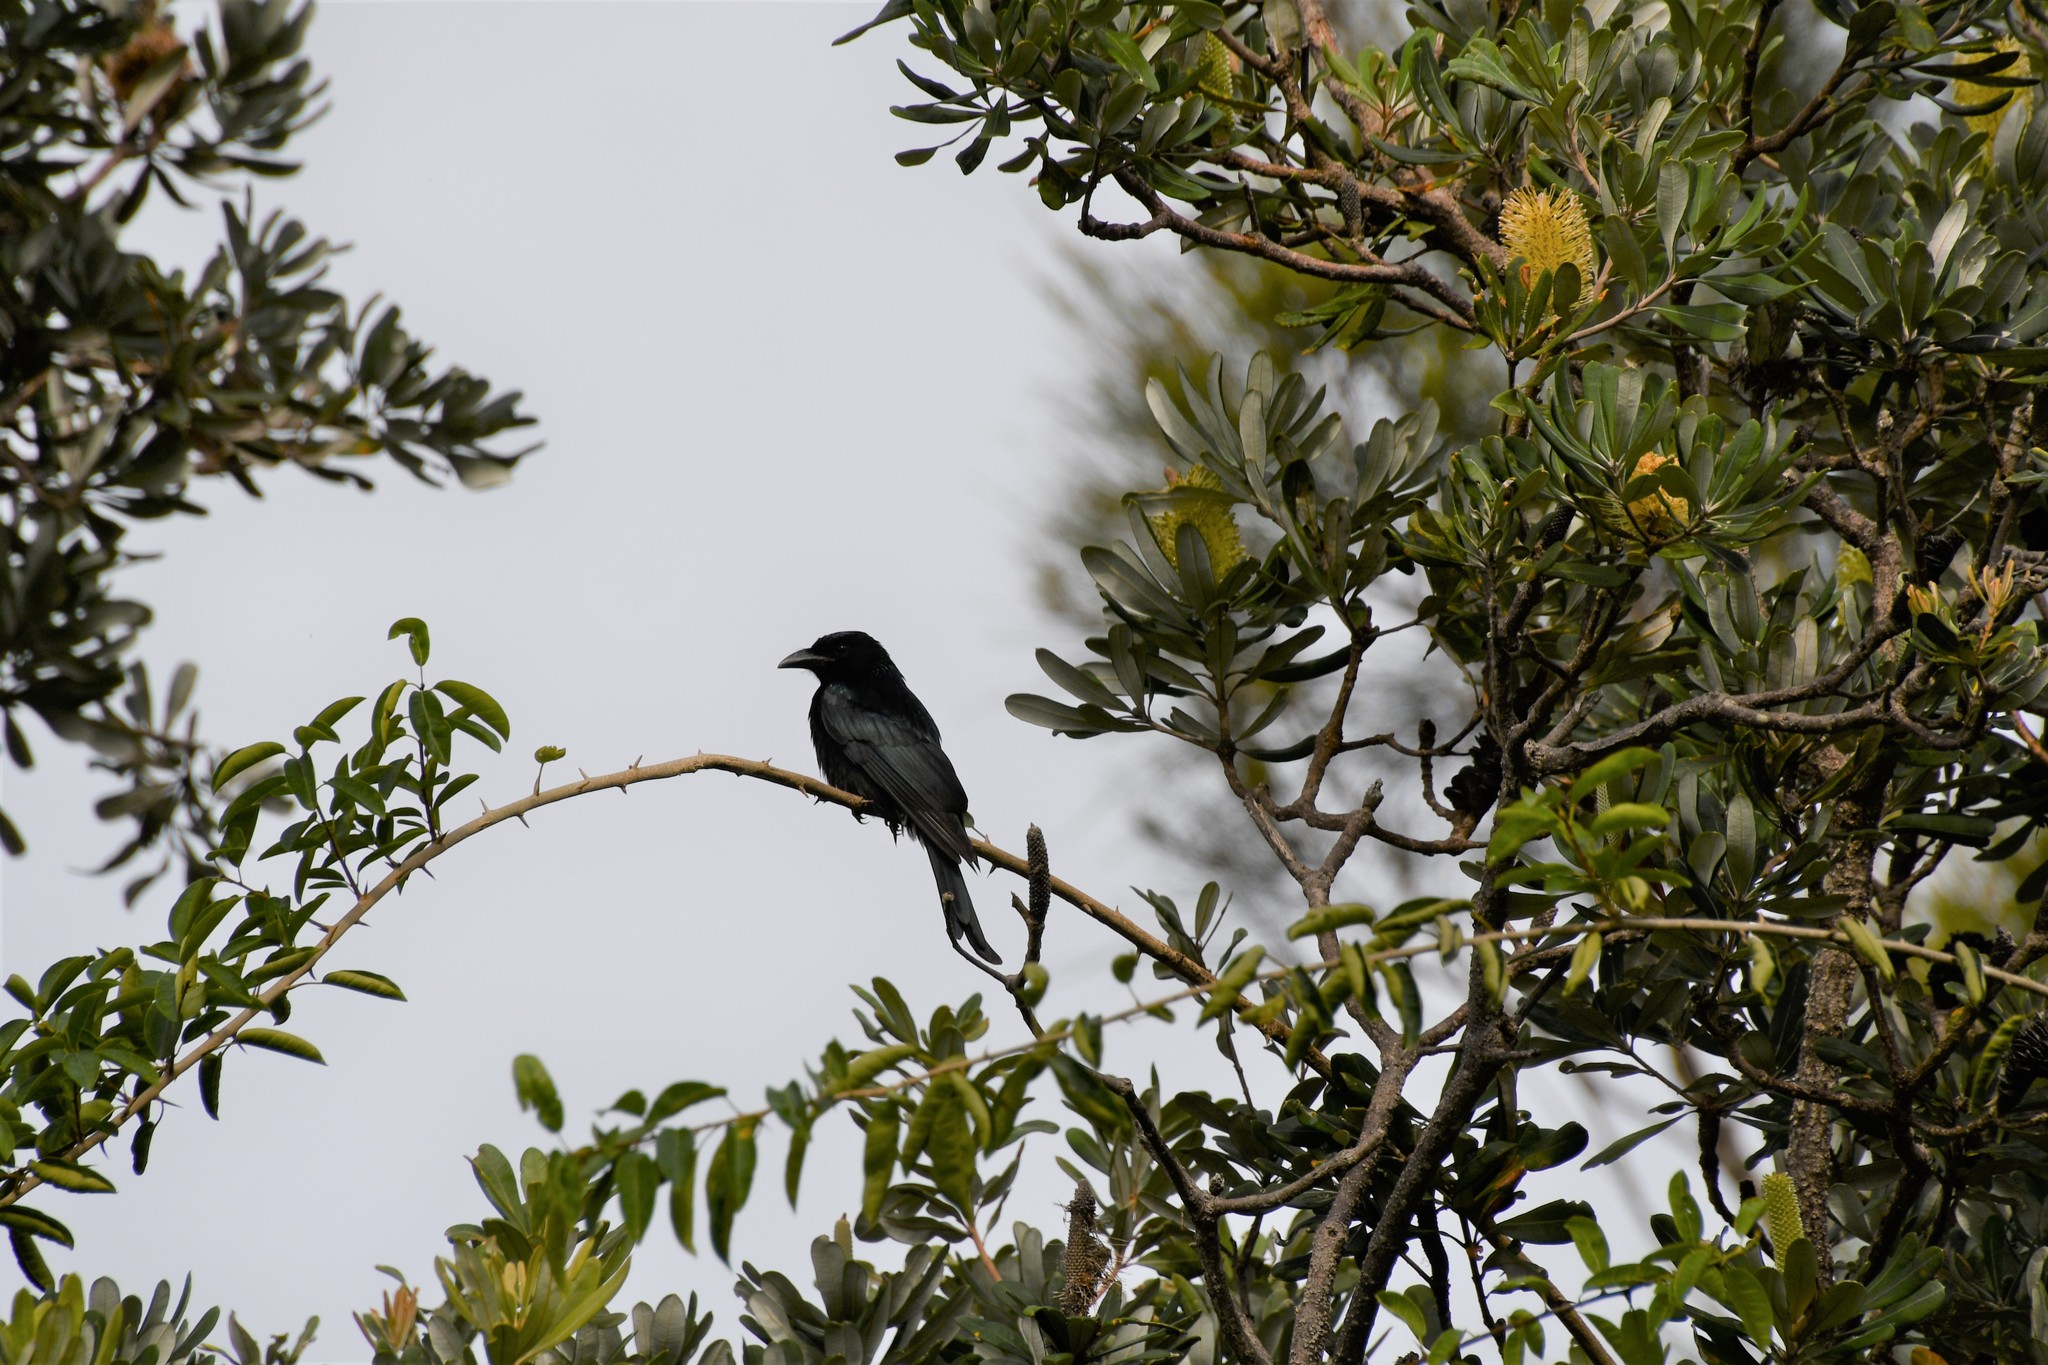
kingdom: Animalia
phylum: Chordata
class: Aves
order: Passeriformes
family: Dicruridae
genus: Dicrurus
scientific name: Dicrurus bracteatus
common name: Spangled drongo
